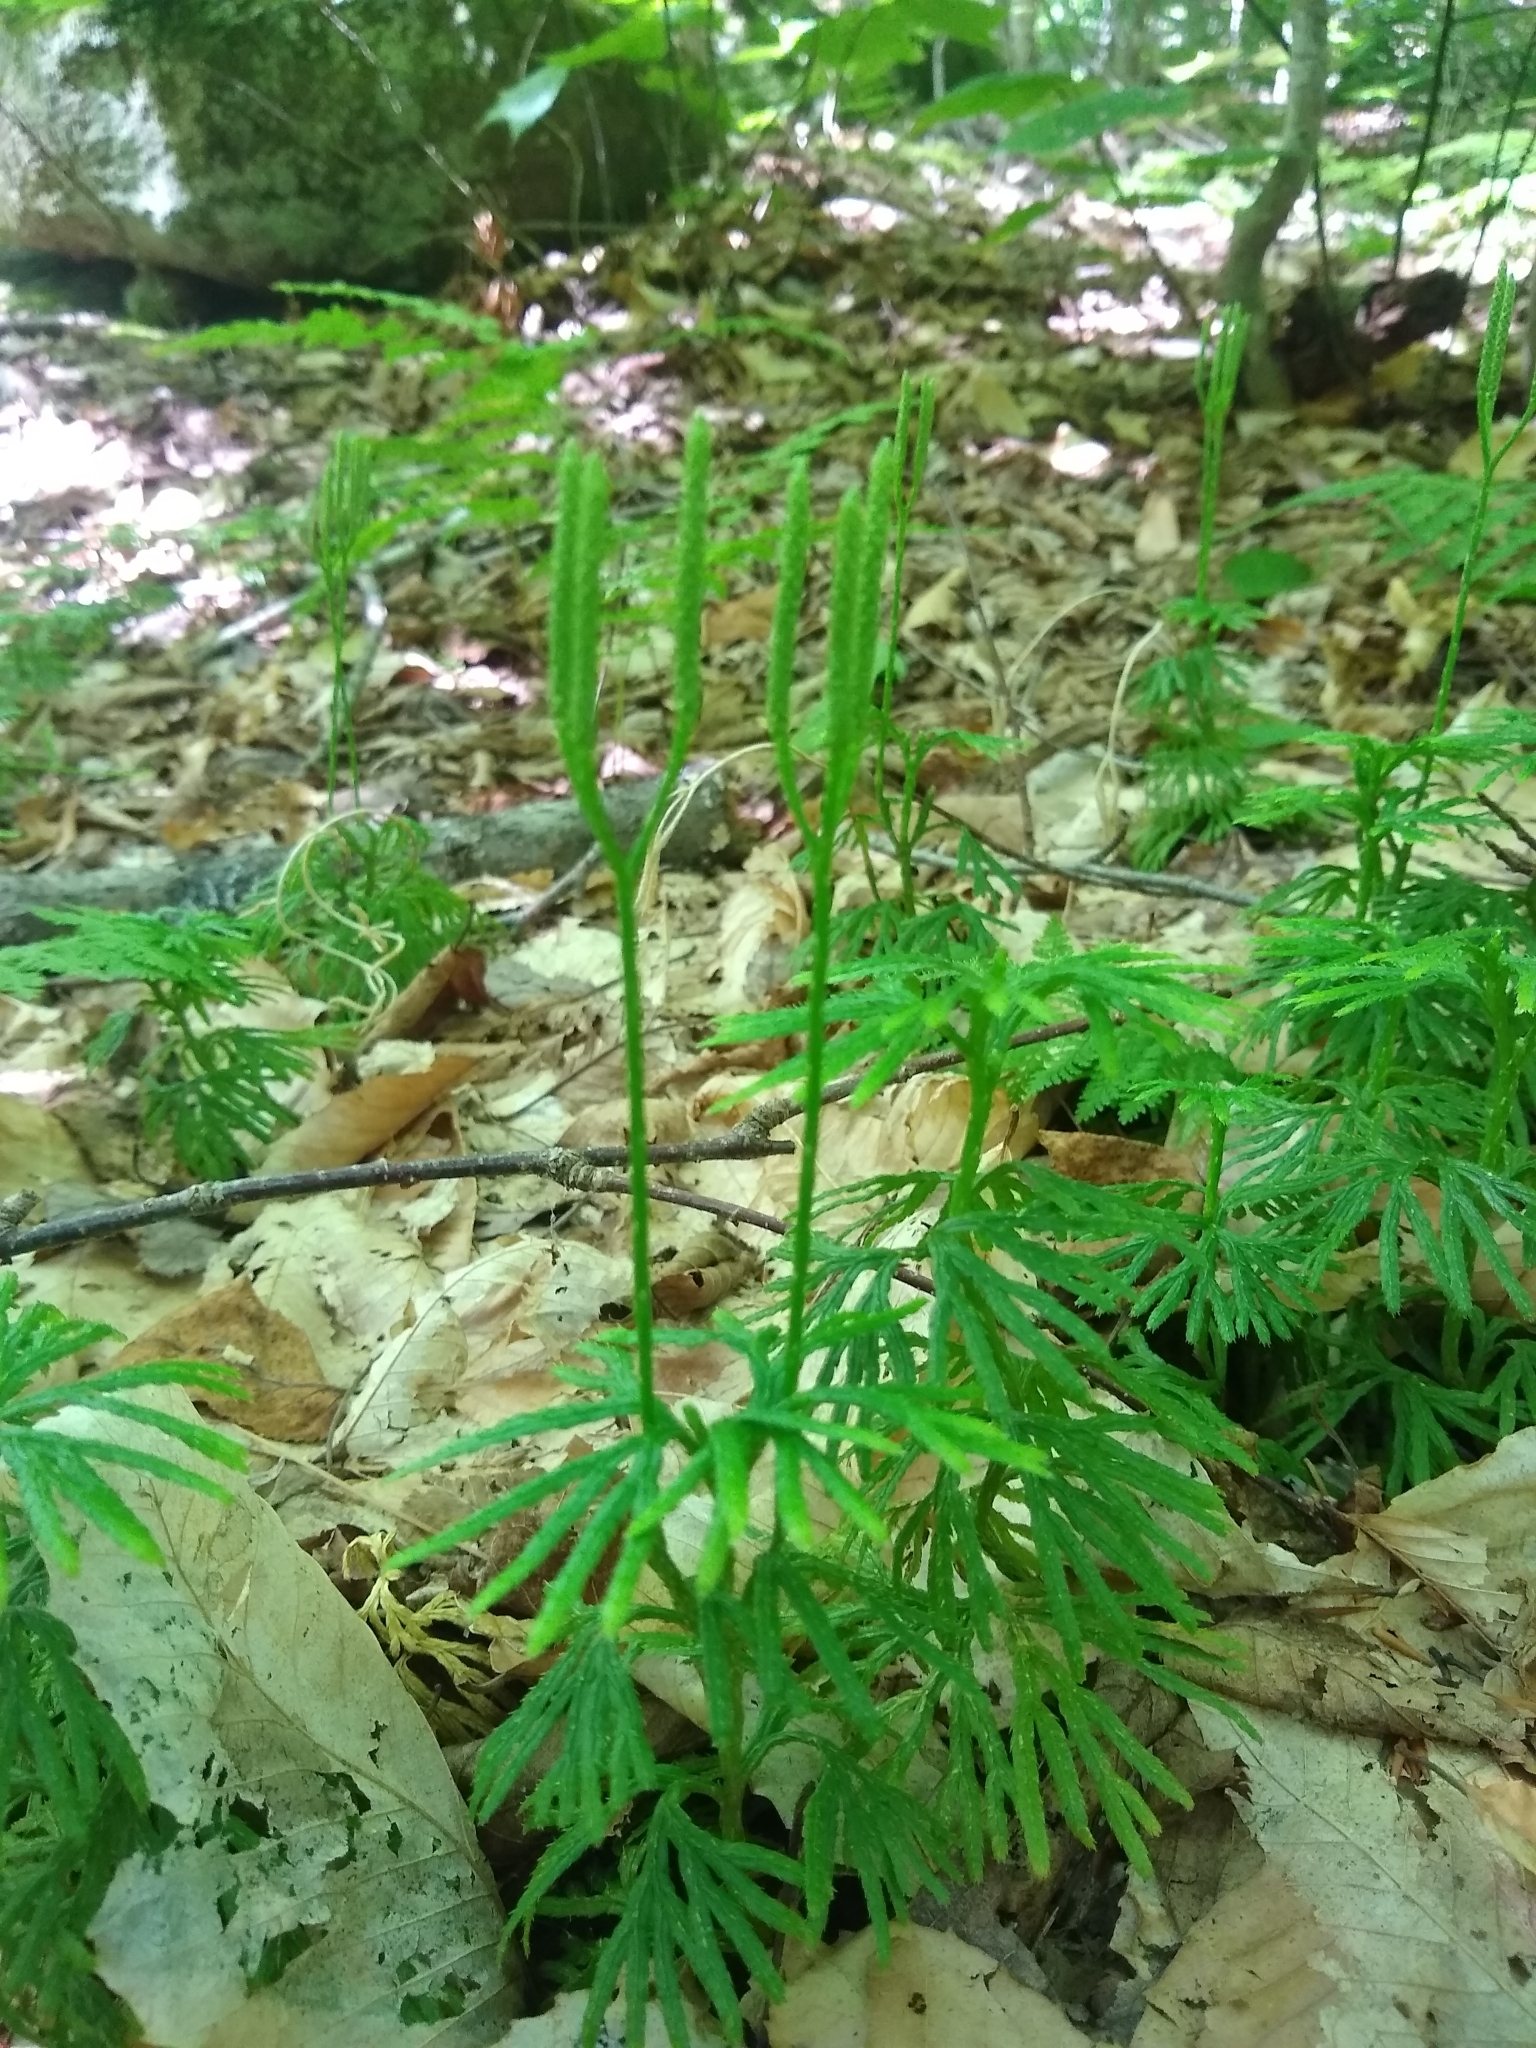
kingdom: Plantae
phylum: Tracheophyta
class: Lycopodiopsida
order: Lycopodiales
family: Lycopodiaceae
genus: Diphasiastrum
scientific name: Diphasiastrum digitatum
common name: Southern running-pine
